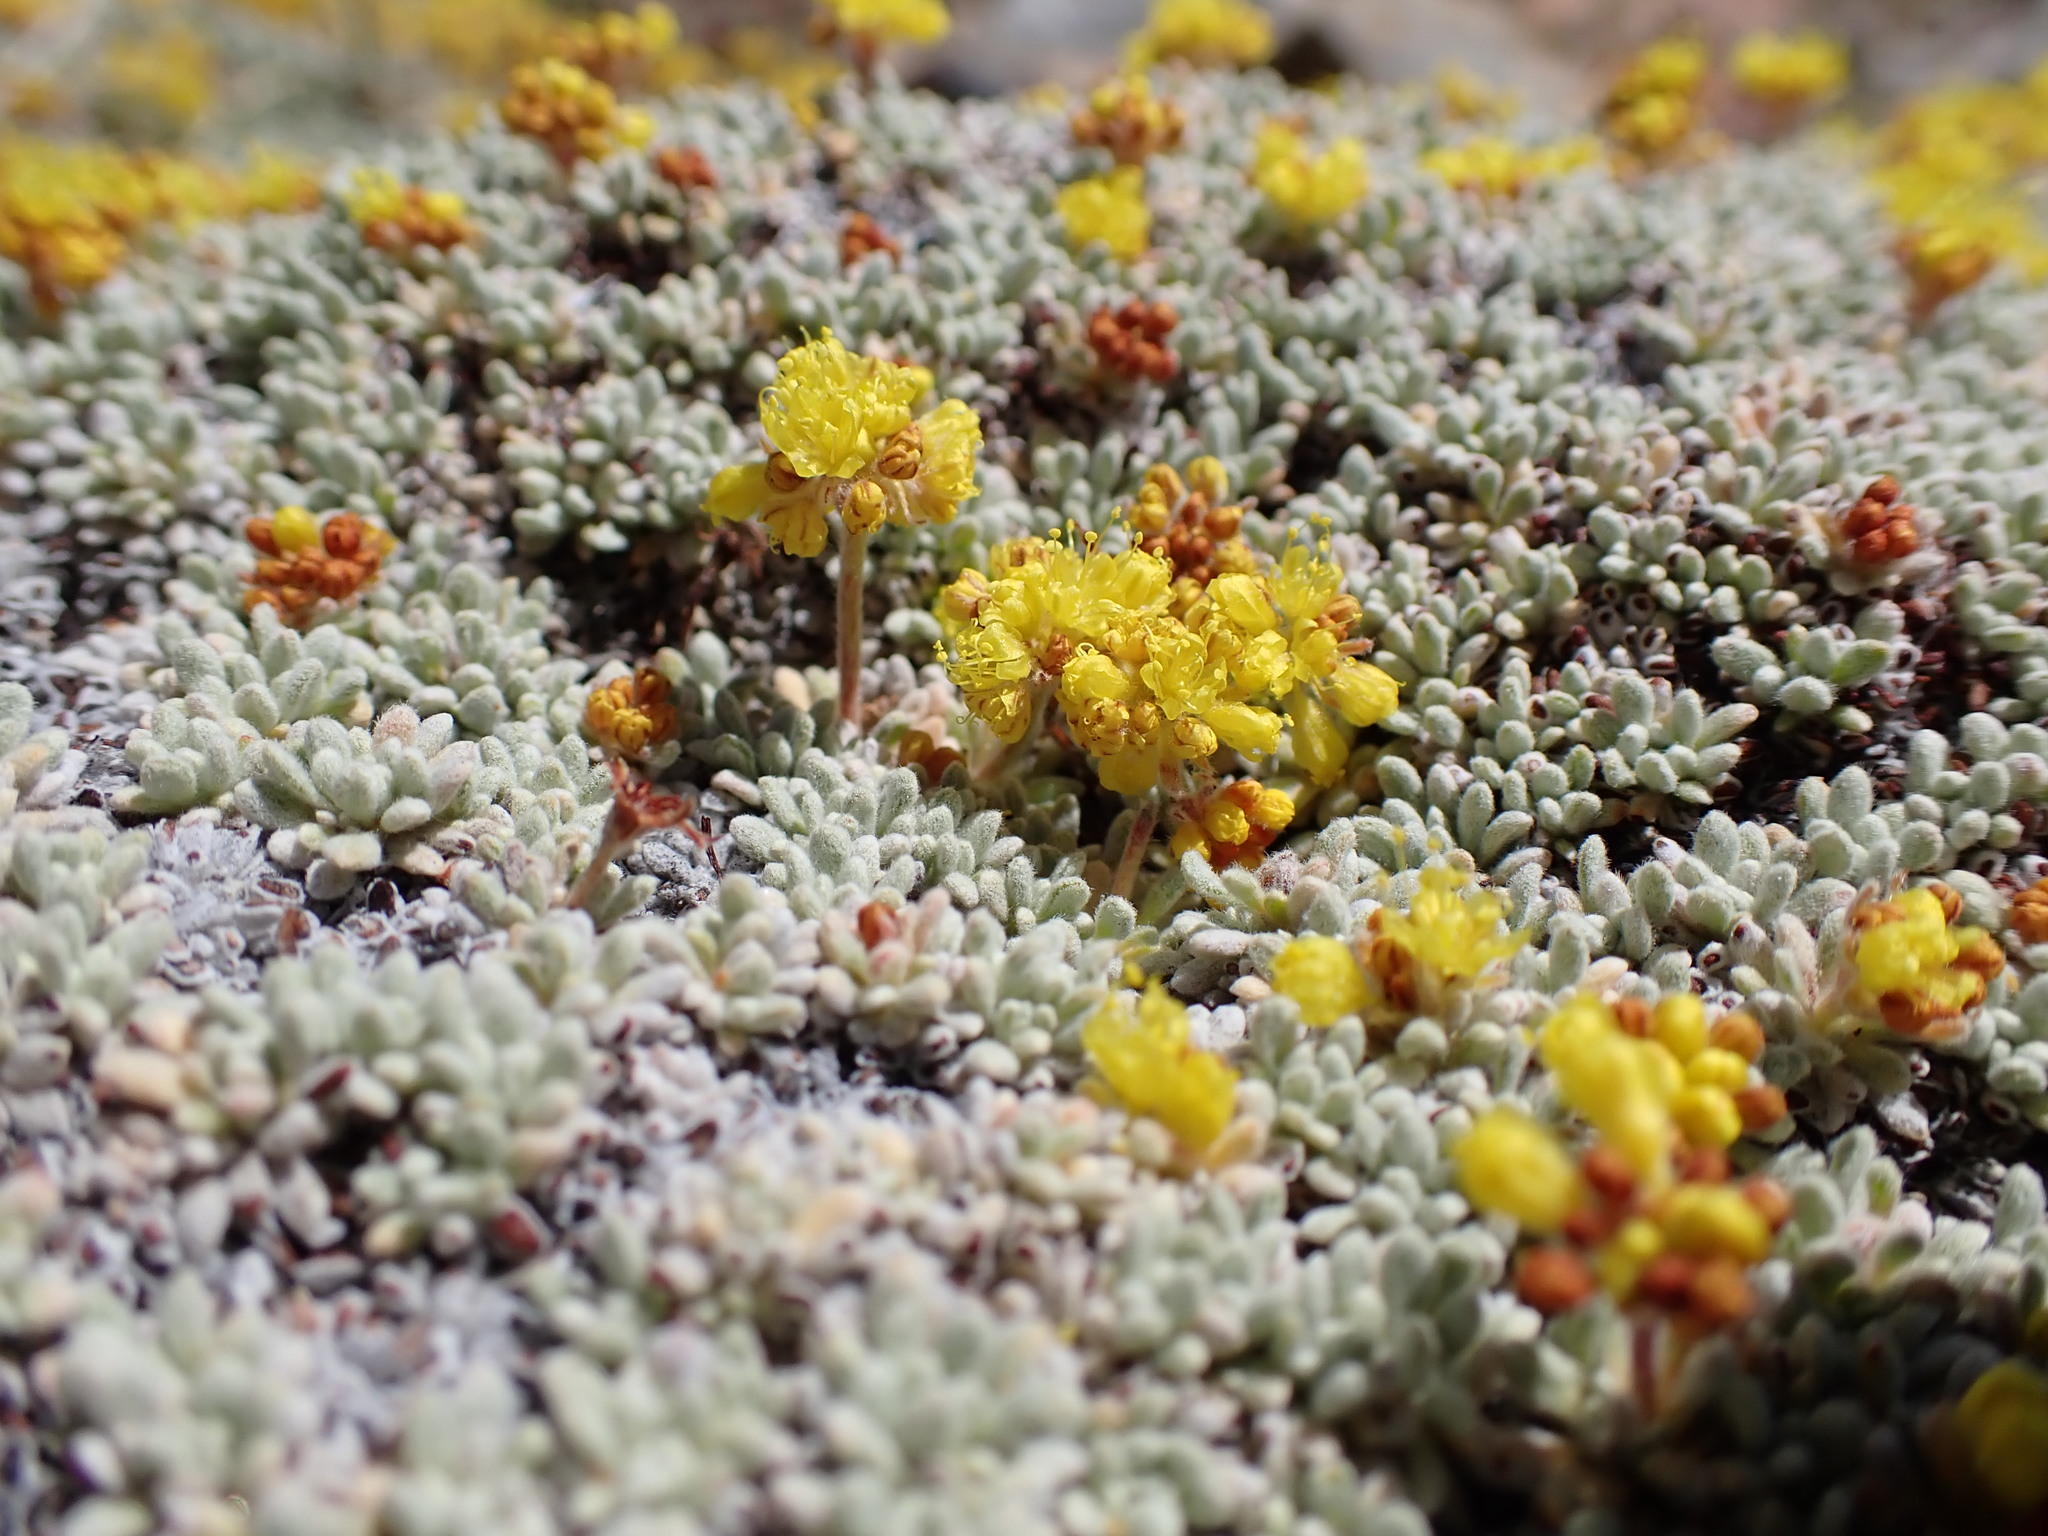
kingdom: Plantae
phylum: Tracheophyta
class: Magnoliopsida
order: Caryophyllales
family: Polygonaceae
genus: Eriogonum
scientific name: Eriogonum caespitosum
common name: Matted wild buckwheat
